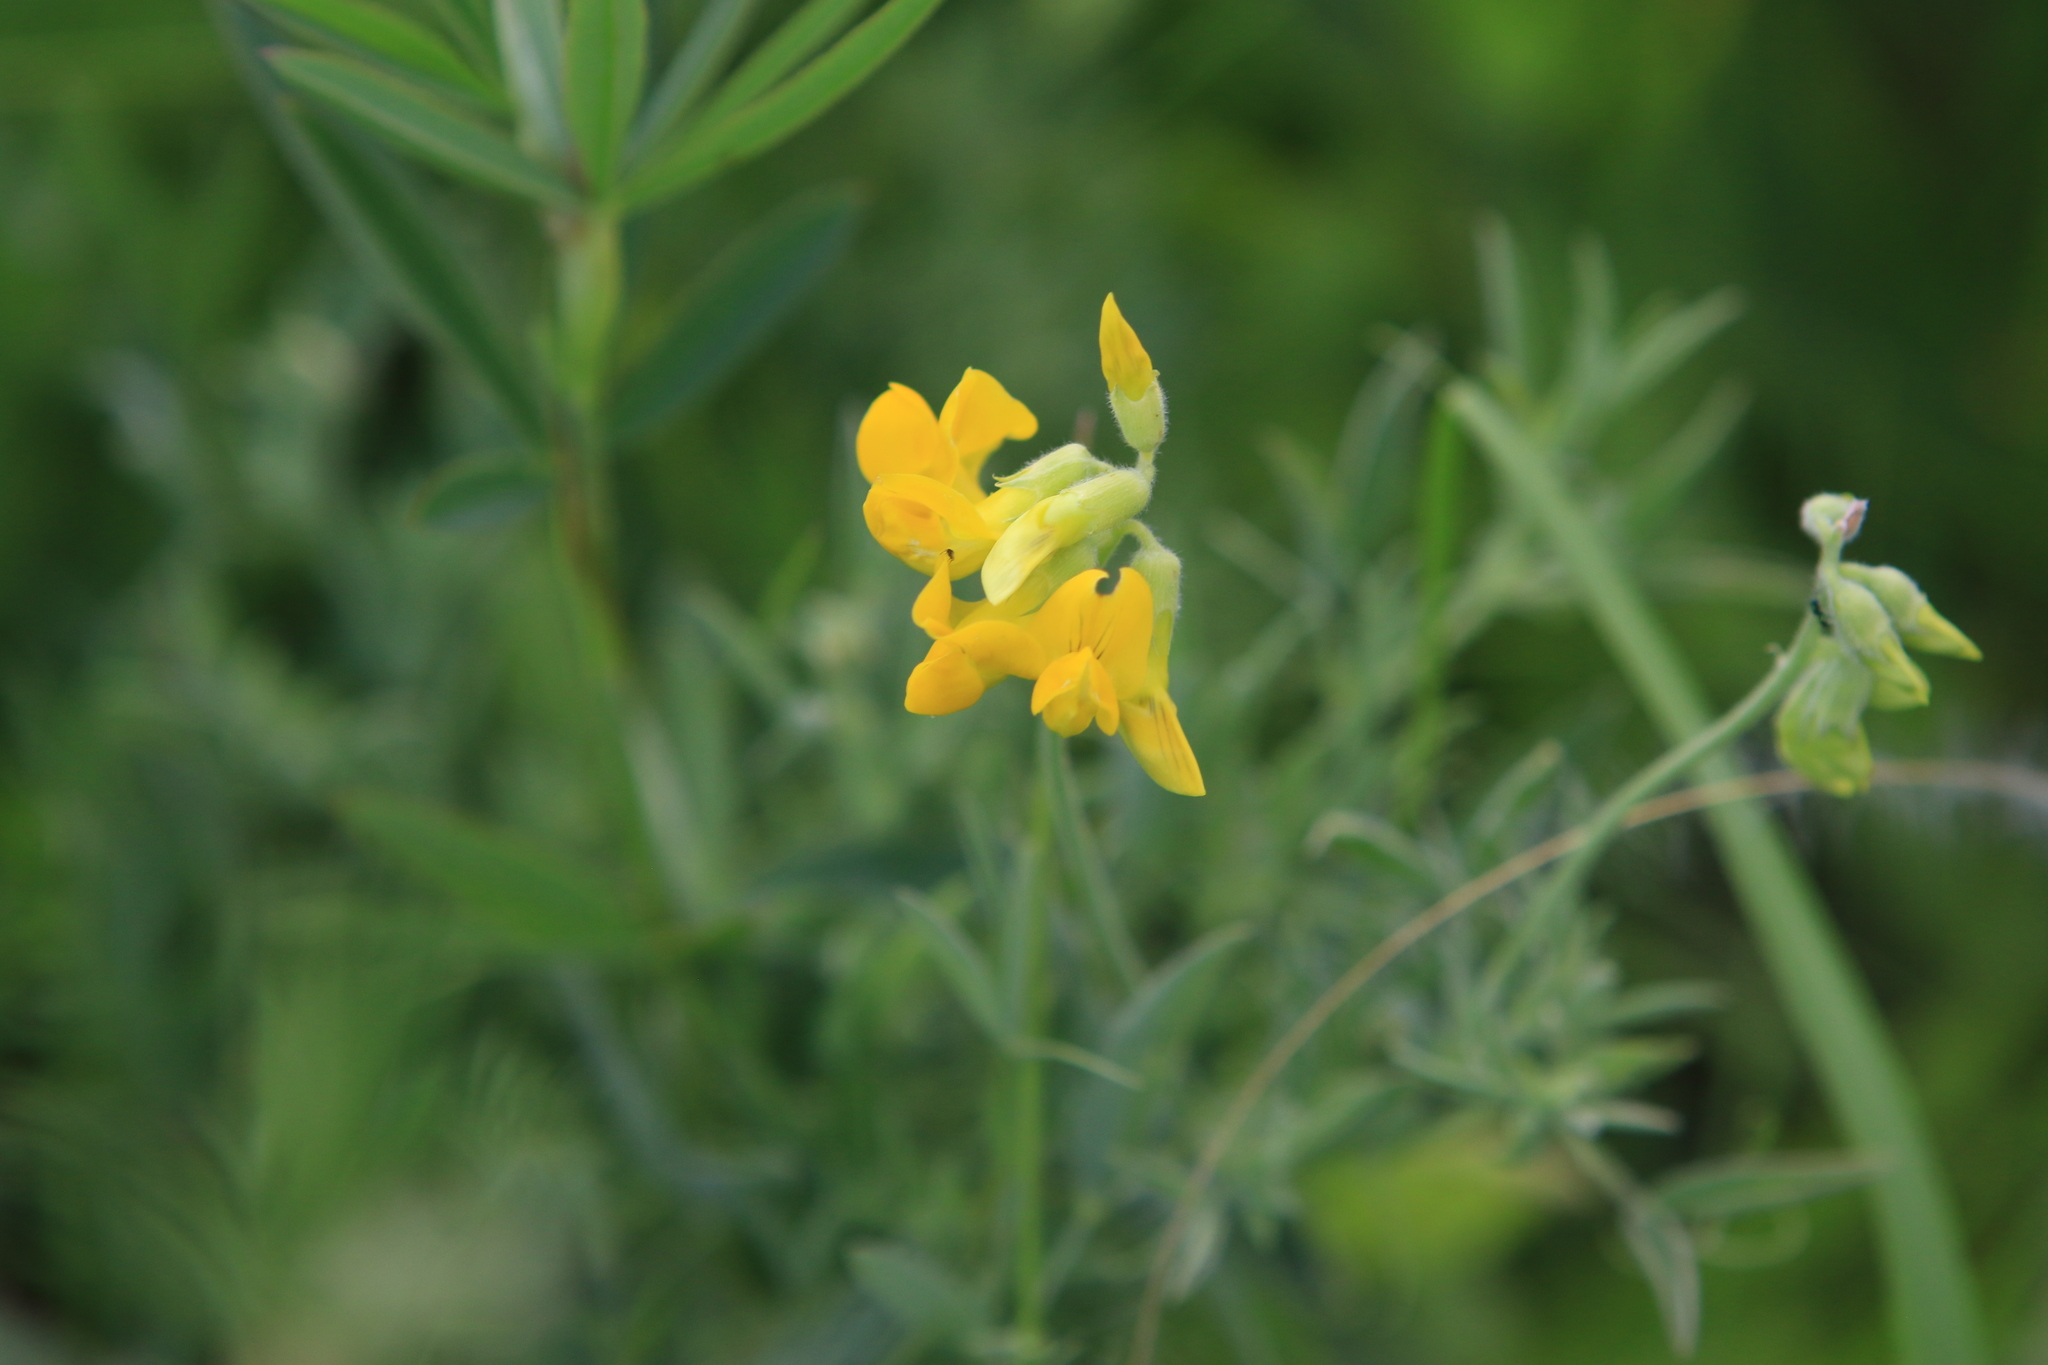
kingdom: Plantae
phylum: Tracheophyta
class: Magnoliopsida
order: Fabales
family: Fabaceae
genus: Lathyrus
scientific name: Lathyrus pratensis
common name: Meadow vetchling
